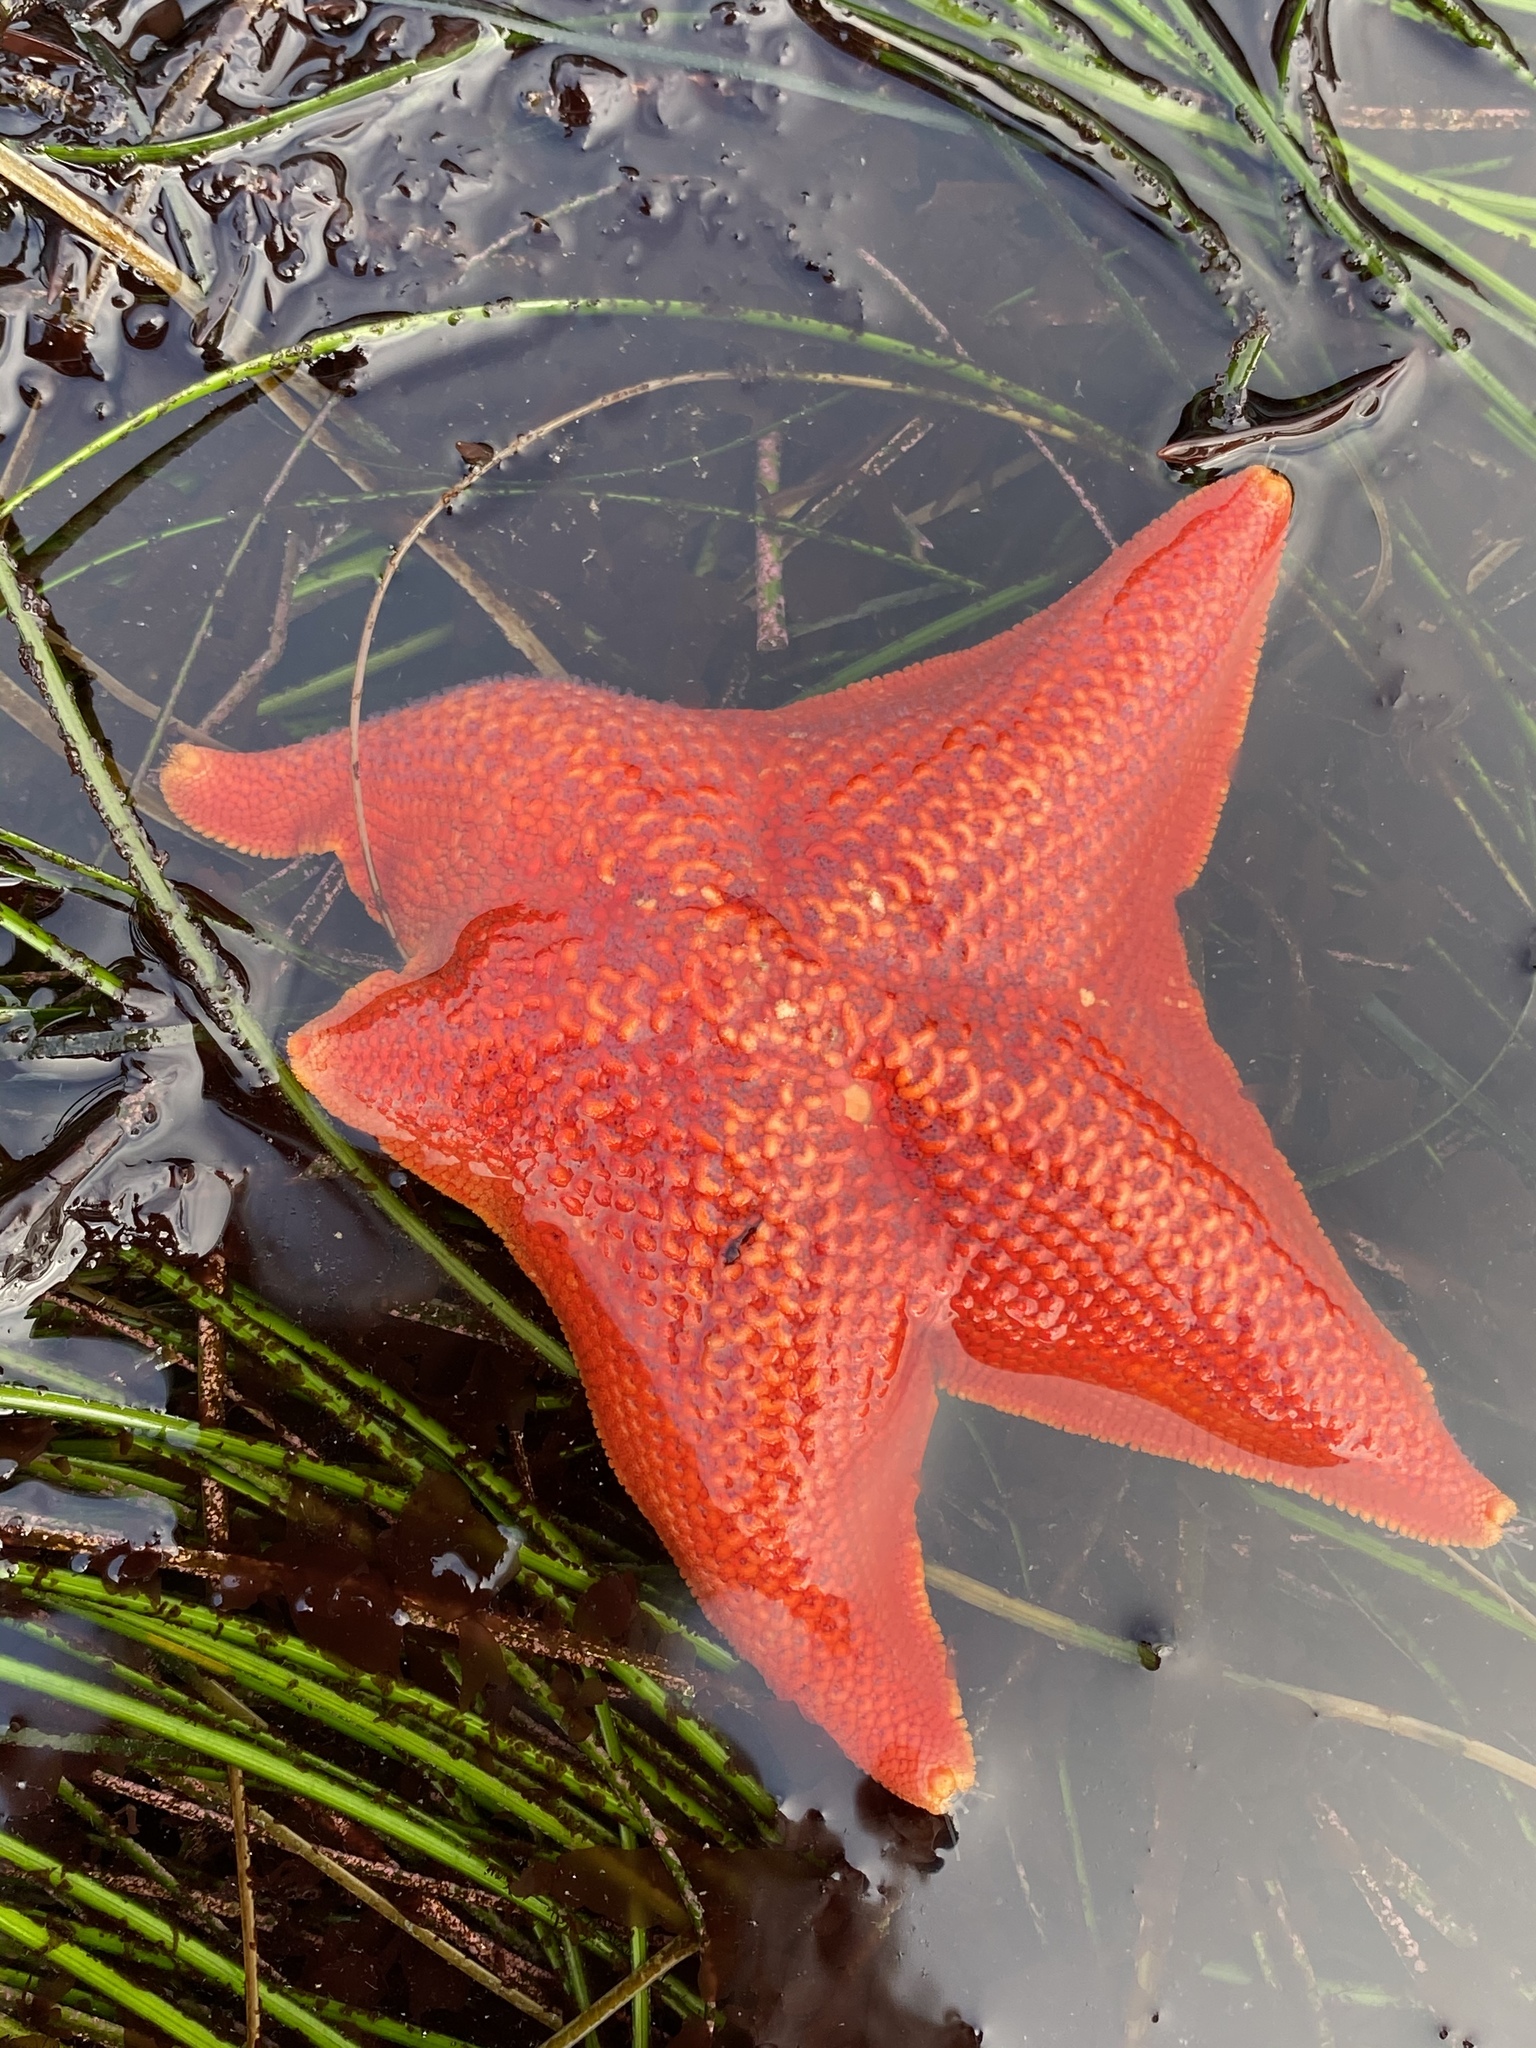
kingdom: Animalia
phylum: Echinodermata
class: Asteroidea
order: Valvatida
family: Asterinidae
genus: Patiria
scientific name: Patiria miniata
